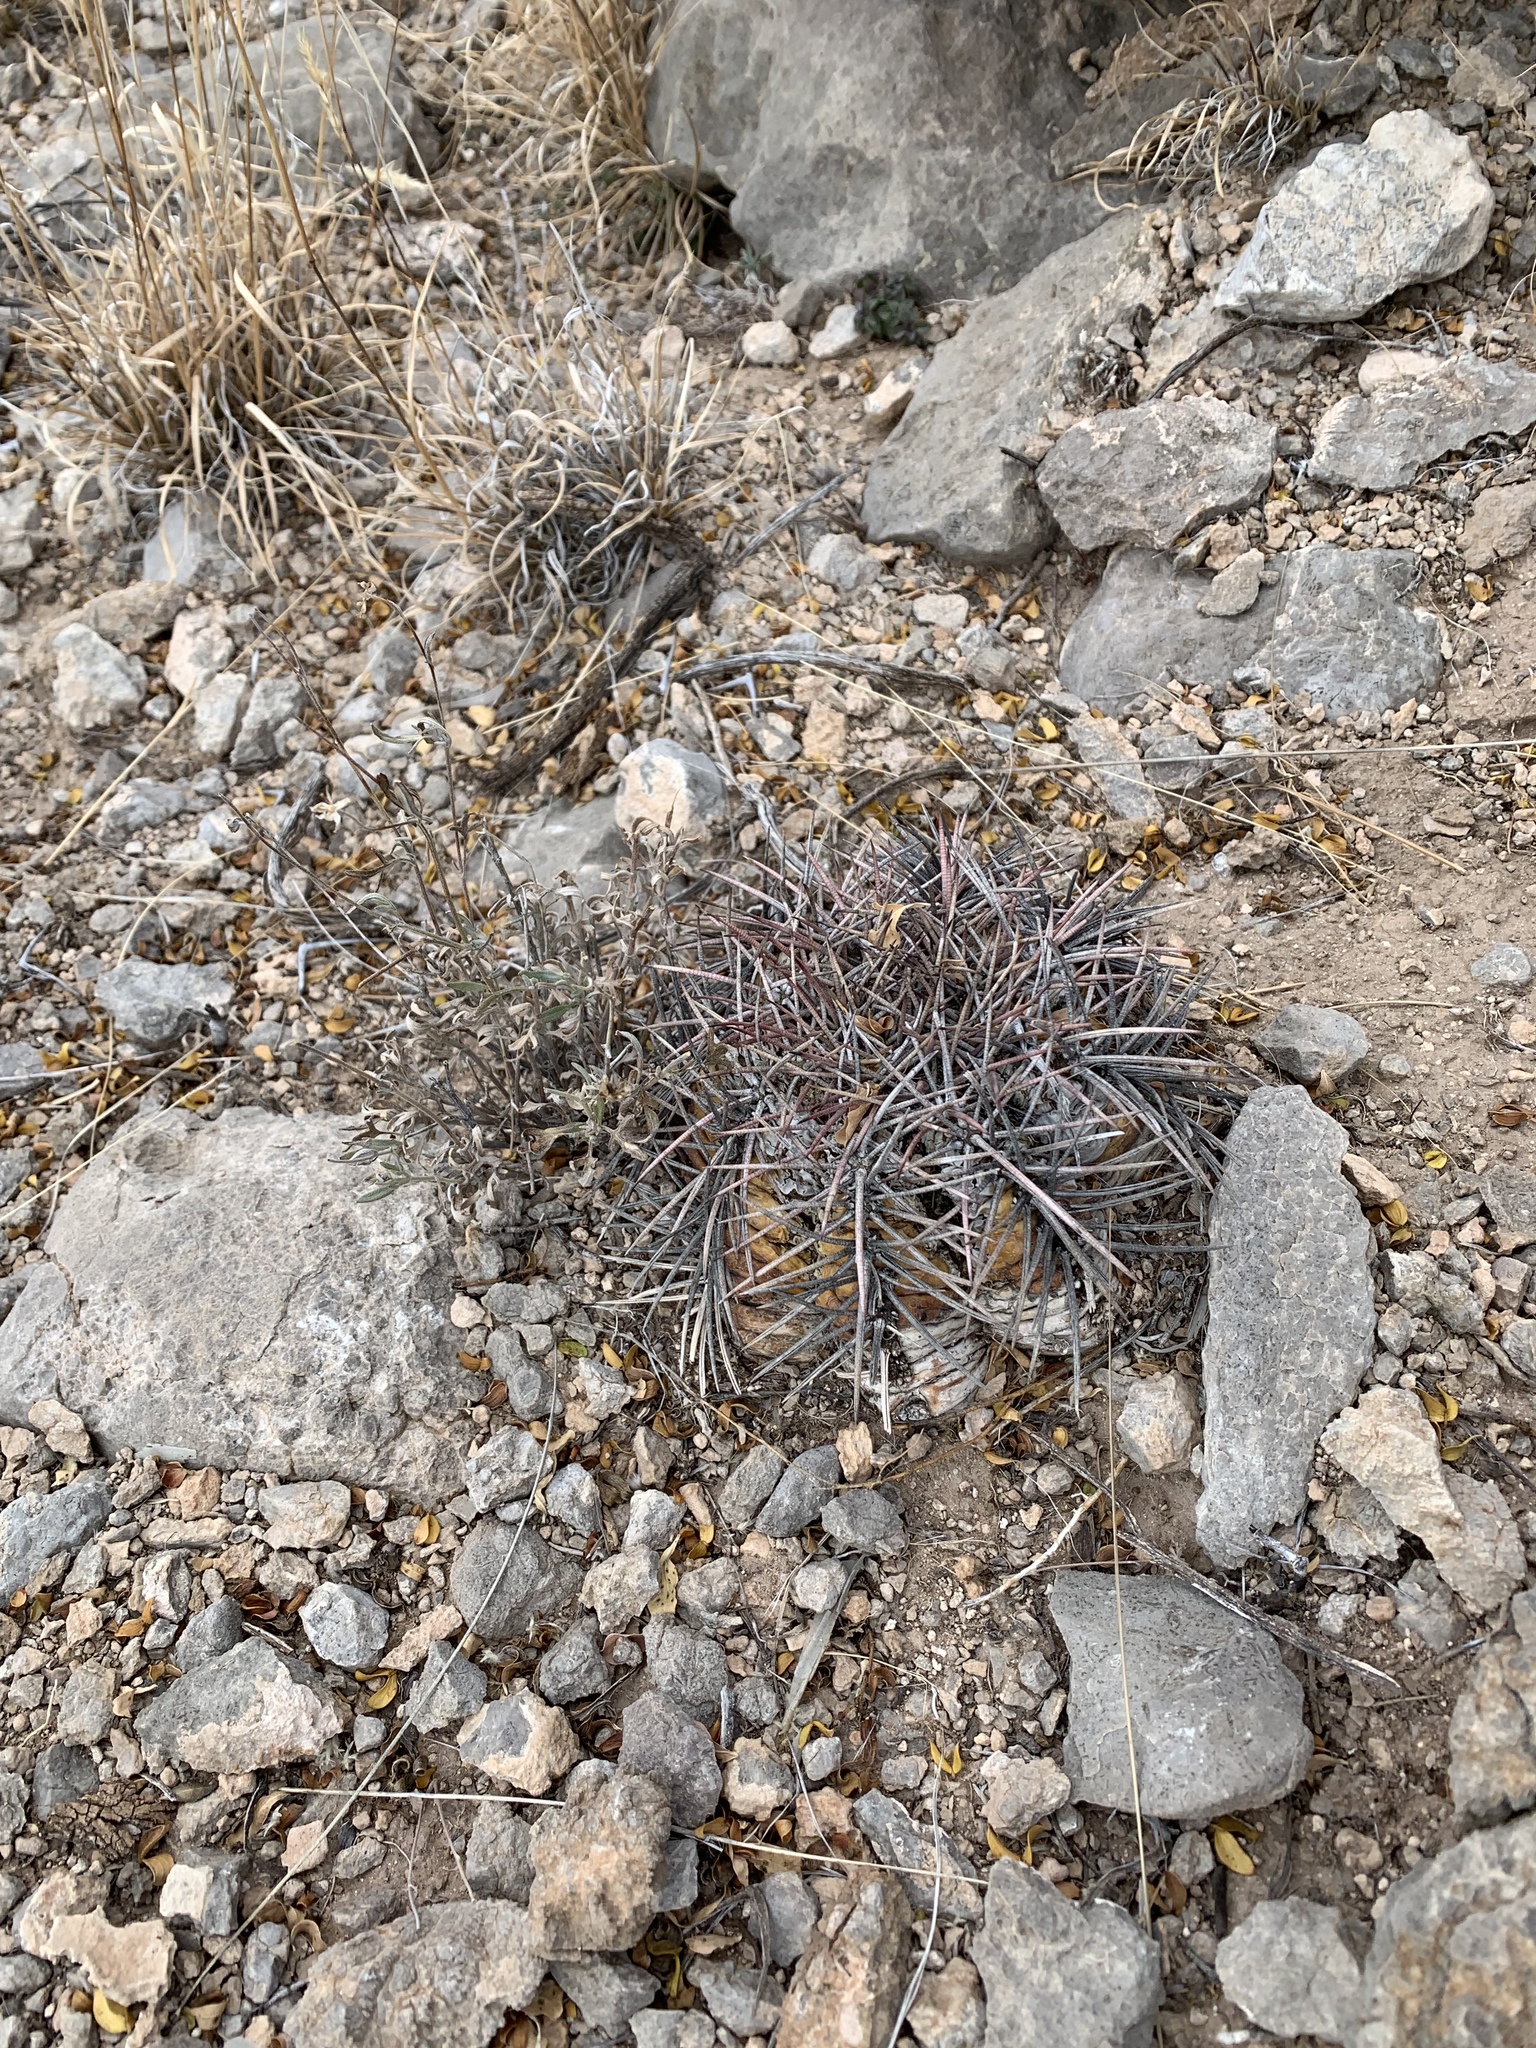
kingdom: Plantae
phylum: Tracheophyta
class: Magnoliopsida
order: Caryophyllales
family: Cactaceae
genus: Echinocactus
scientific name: Echinocactus horizonthalonius
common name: Devilshead
